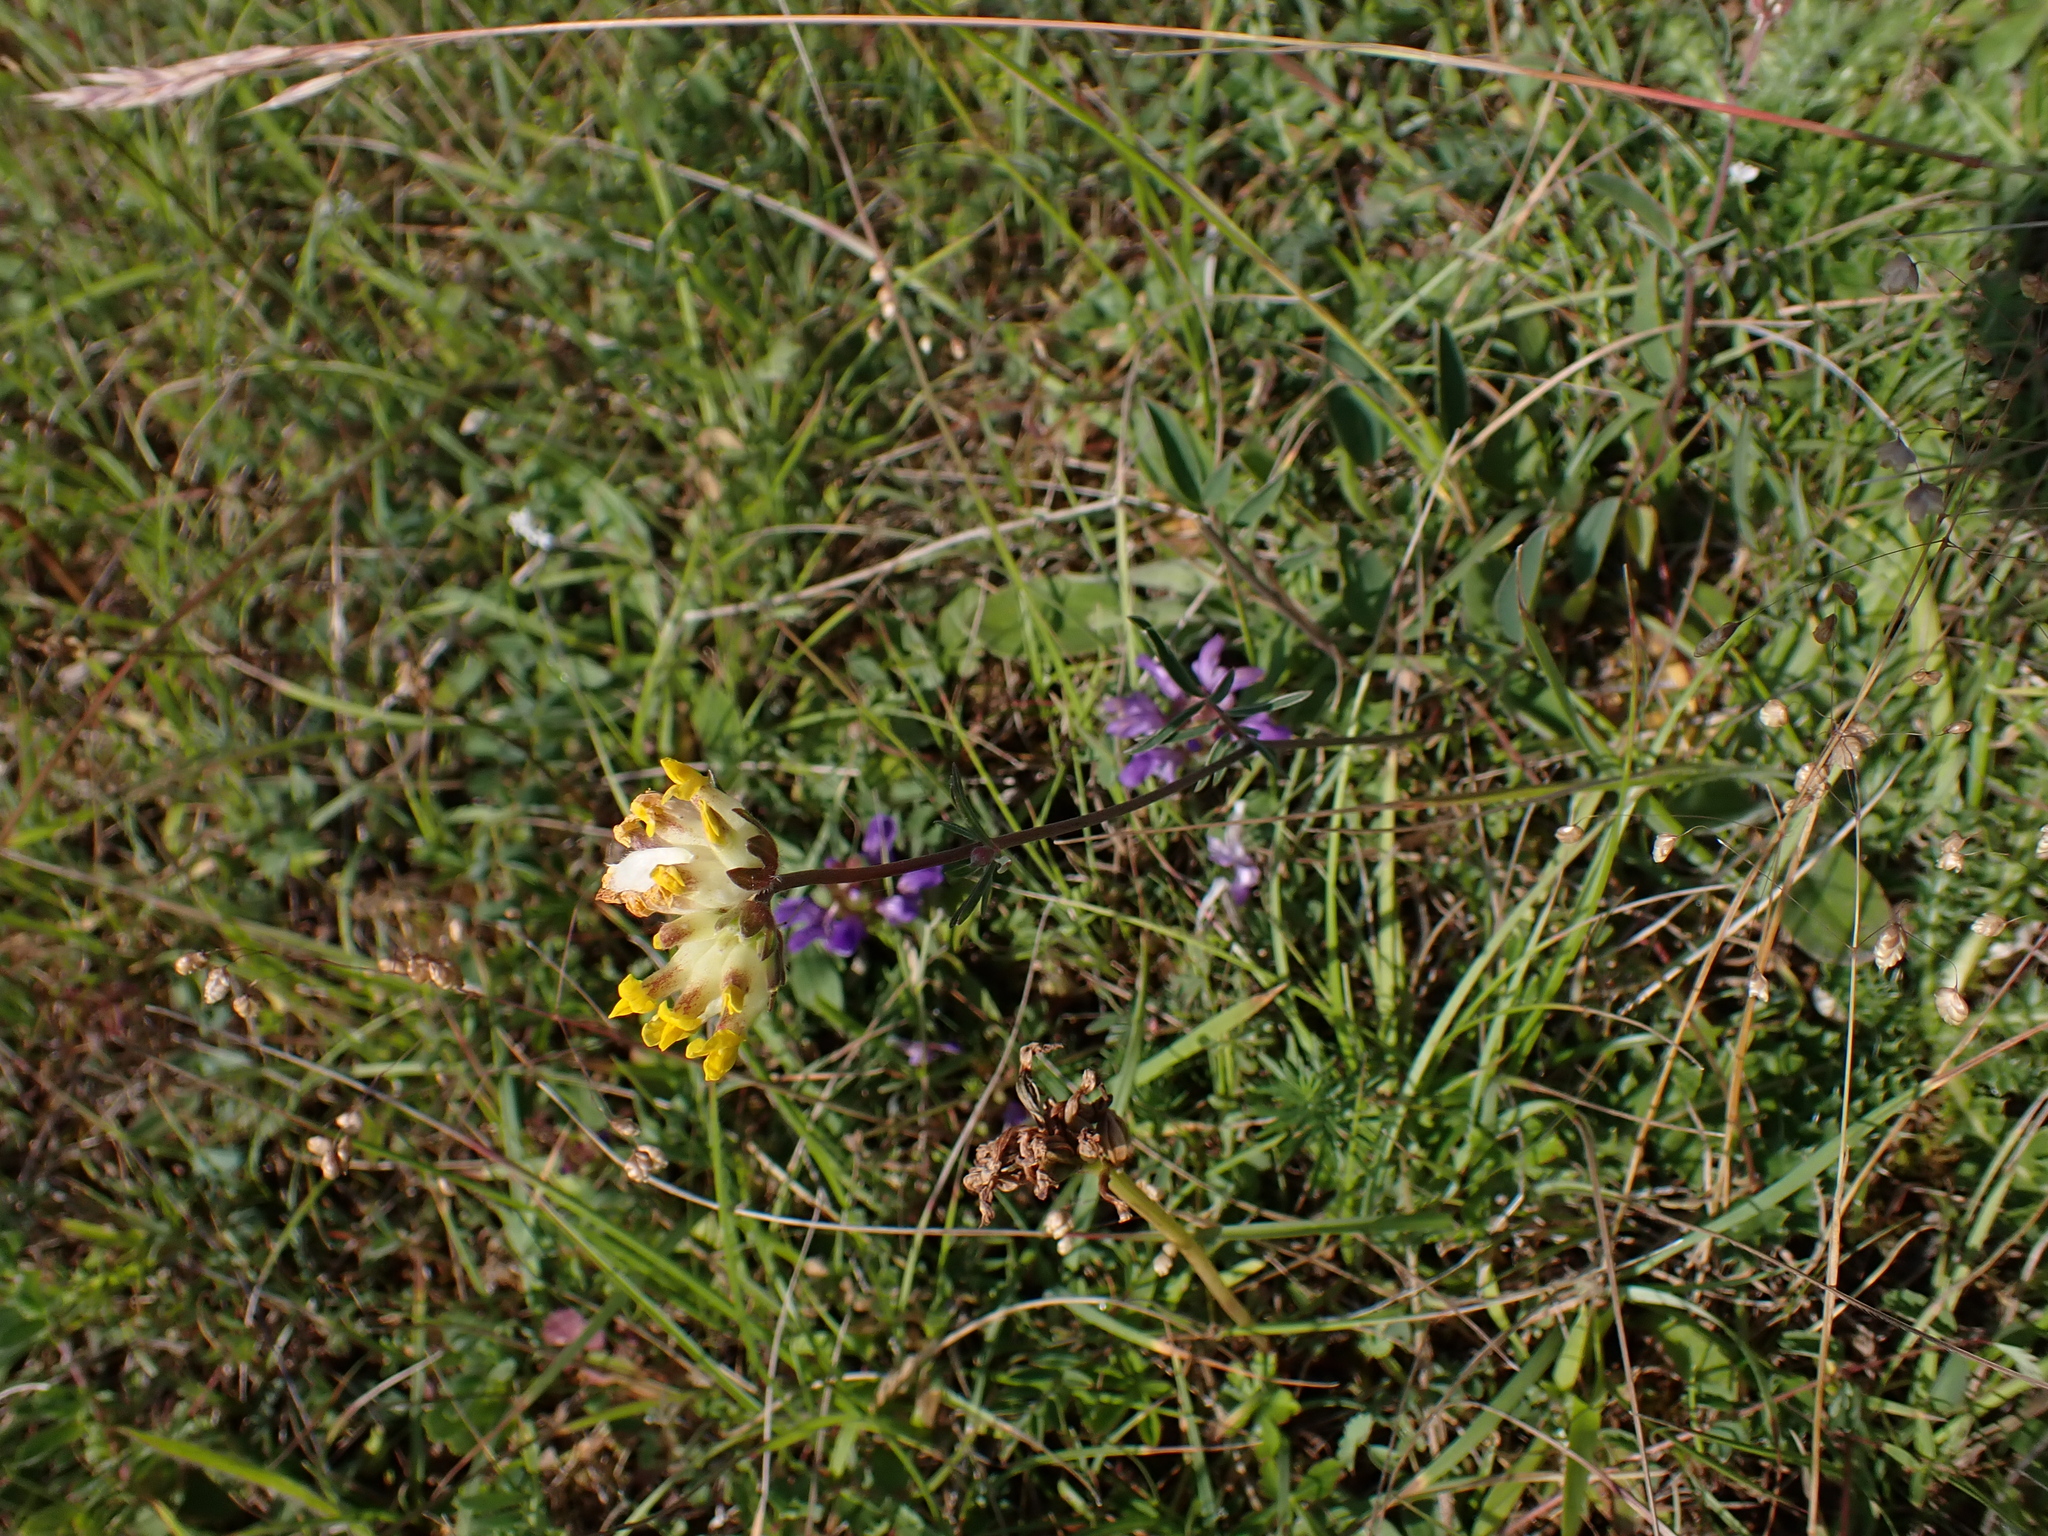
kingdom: Plantae
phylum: Tracheophyta
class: Magnoliopsida
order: Fabales
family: Fabaceae
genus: Anthyllis
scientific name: Anthyllis vulneraria
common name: Kidney vetch
